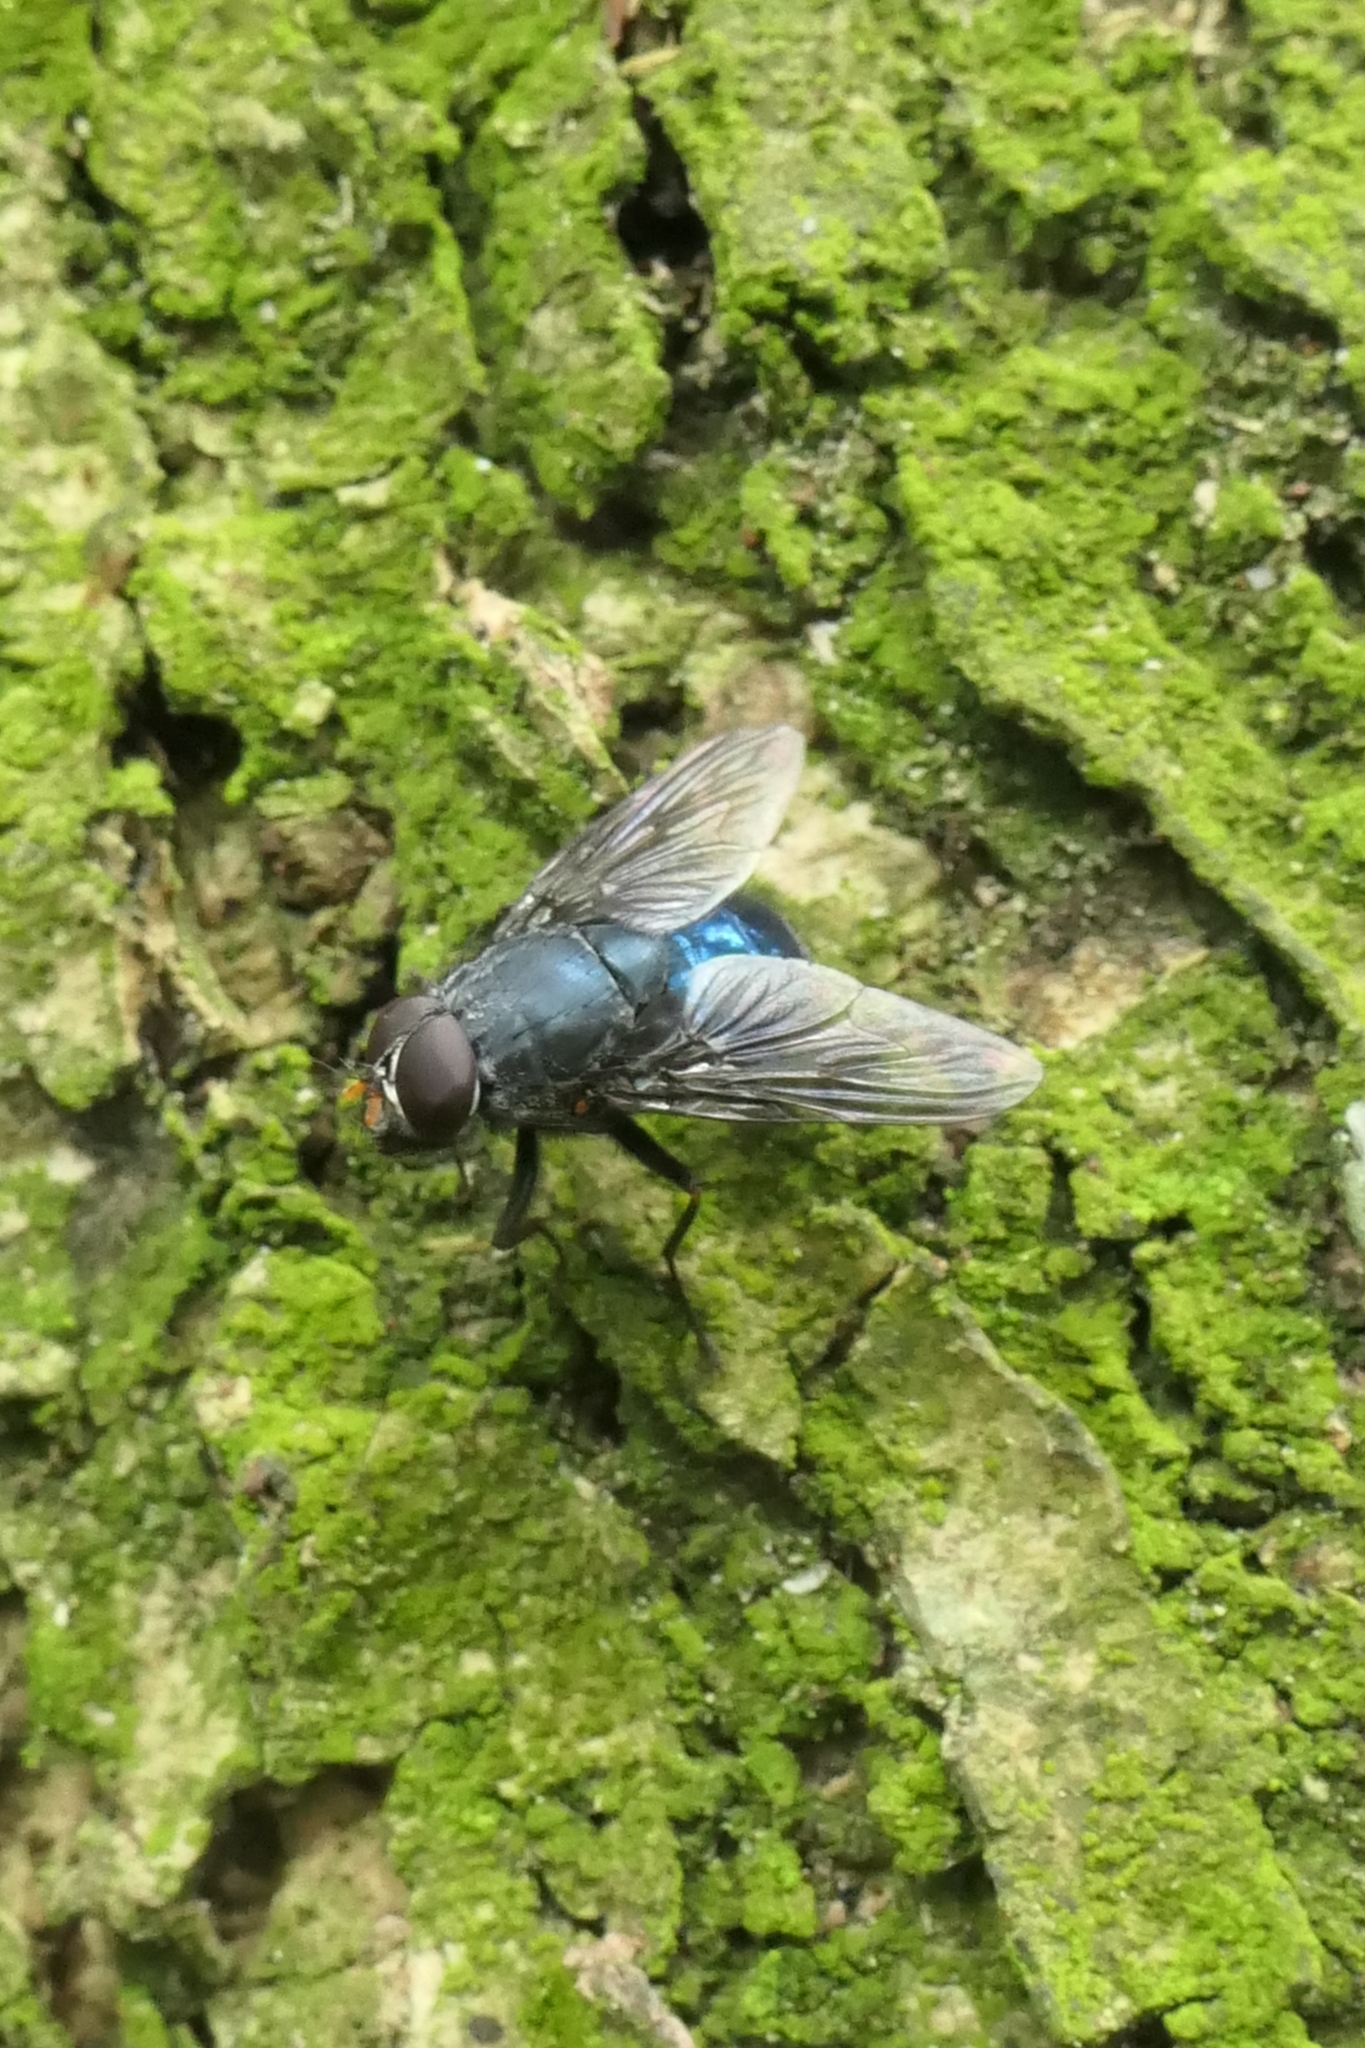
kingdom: Animalia
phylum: Arthropoda
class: Insecta
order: Diptera
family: Muscidae
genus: Calliphoroides
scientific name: Calliphoroides antennatis
